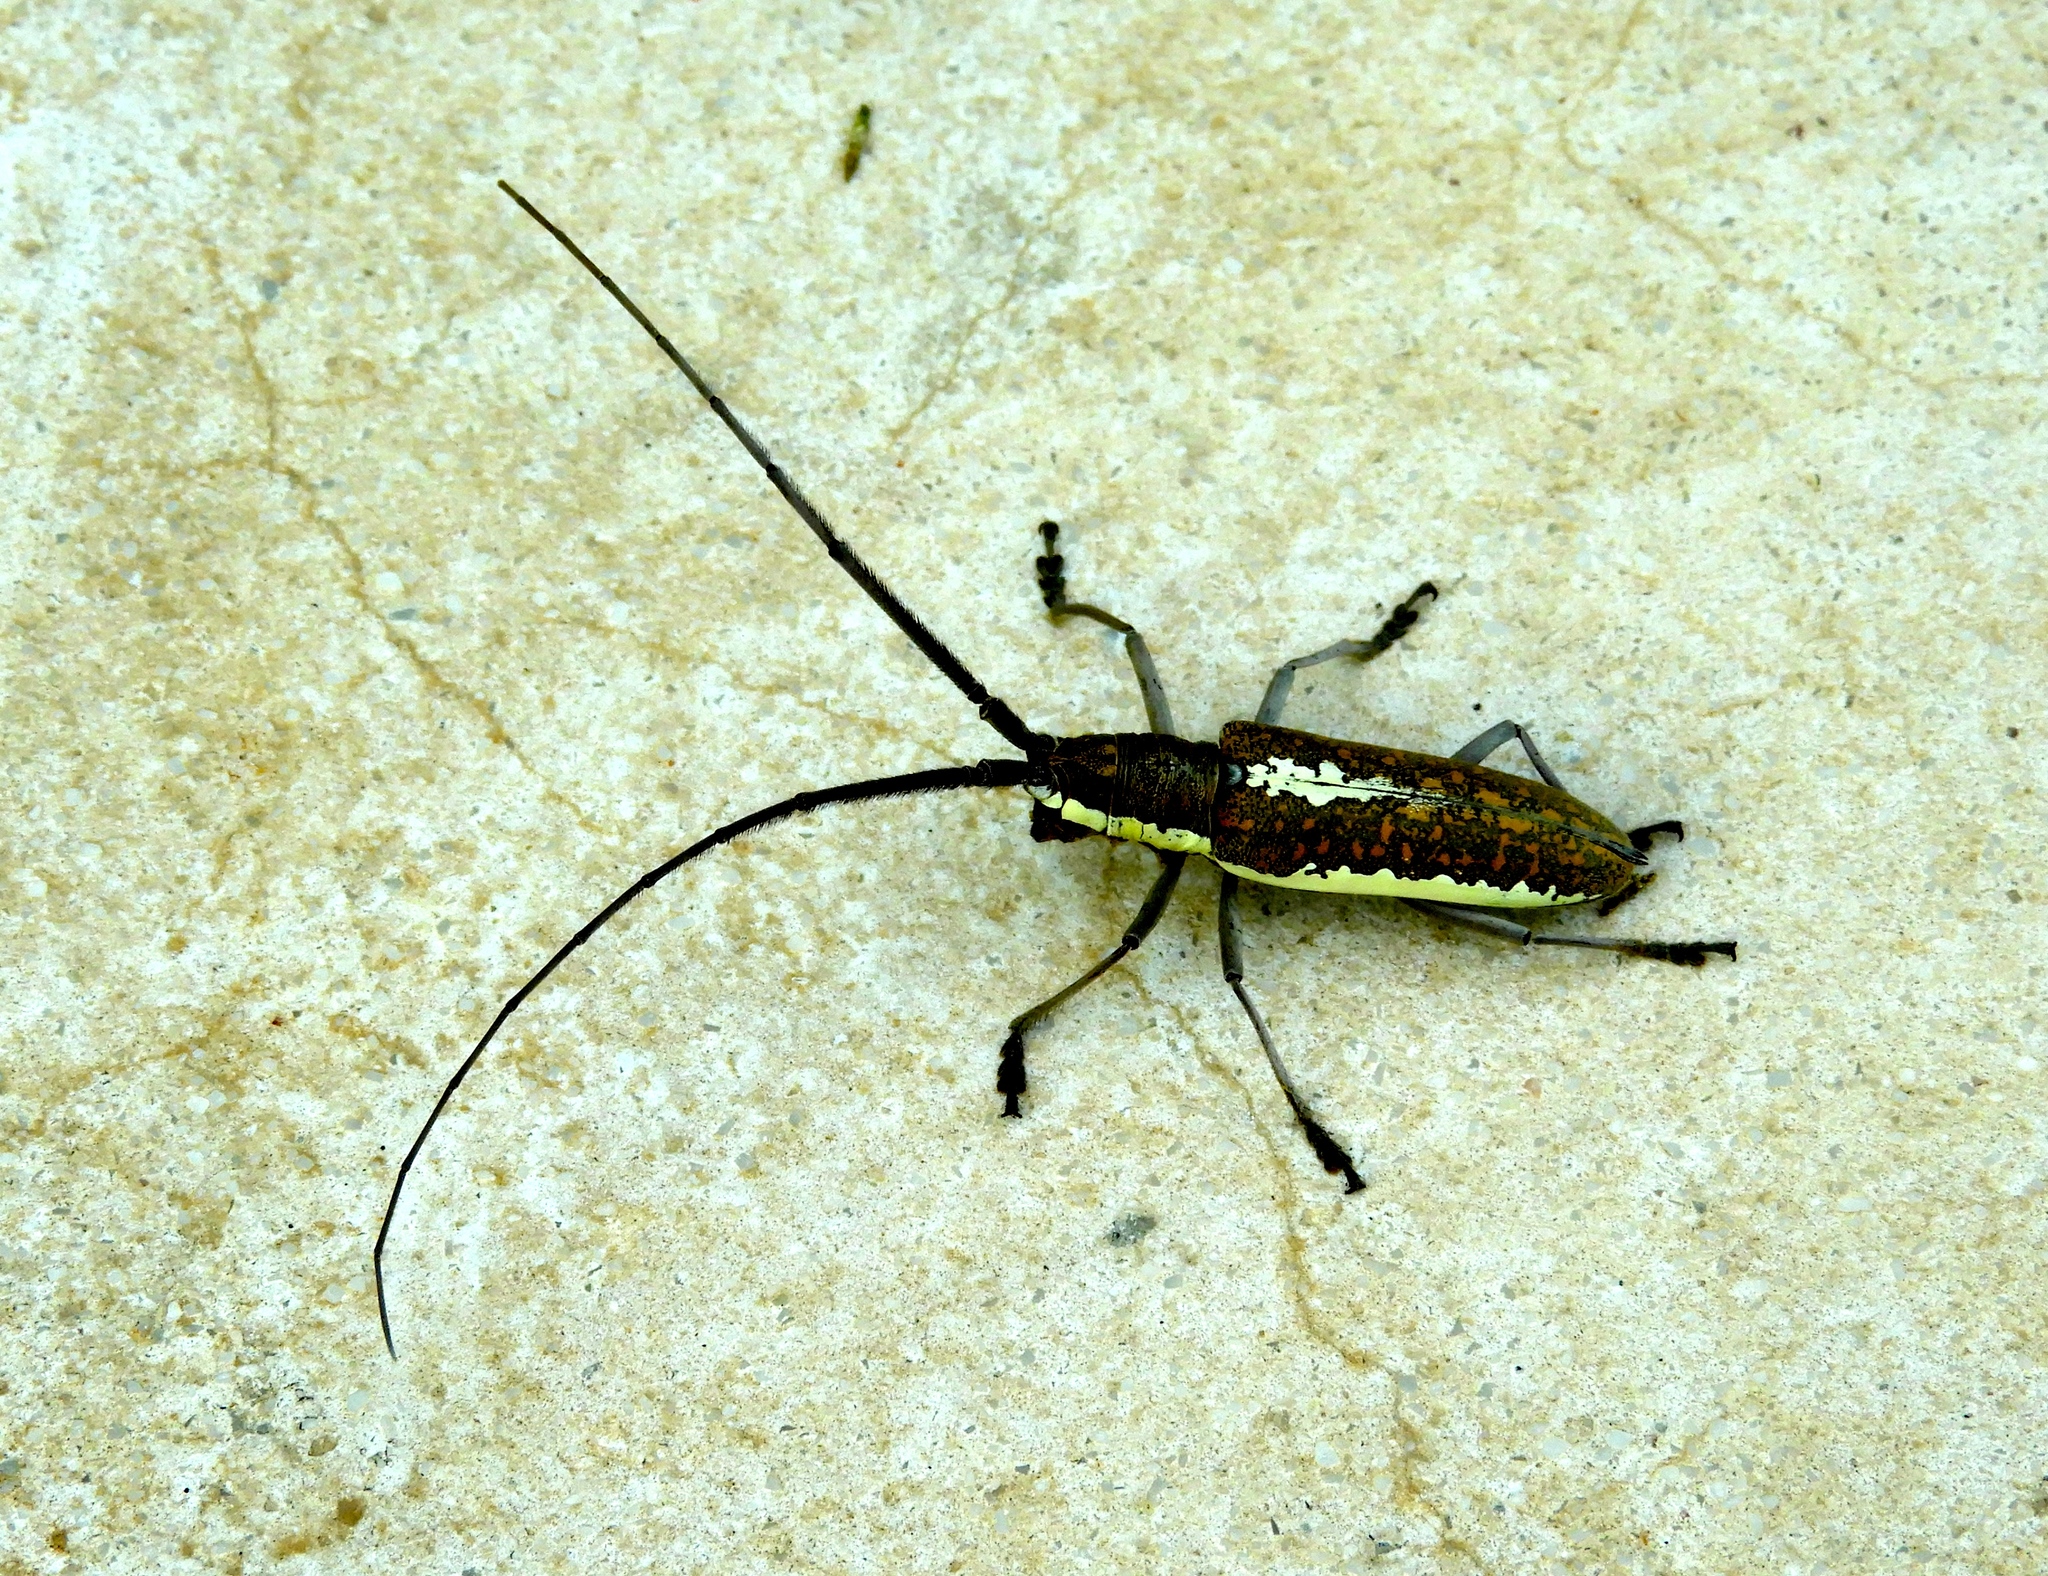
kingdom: Animalia
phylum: Arthropoda
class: Insecta
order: Coleoptera
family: Cerambycidae
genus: Neoptychodes
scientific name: Neoptychodes trilineatus
